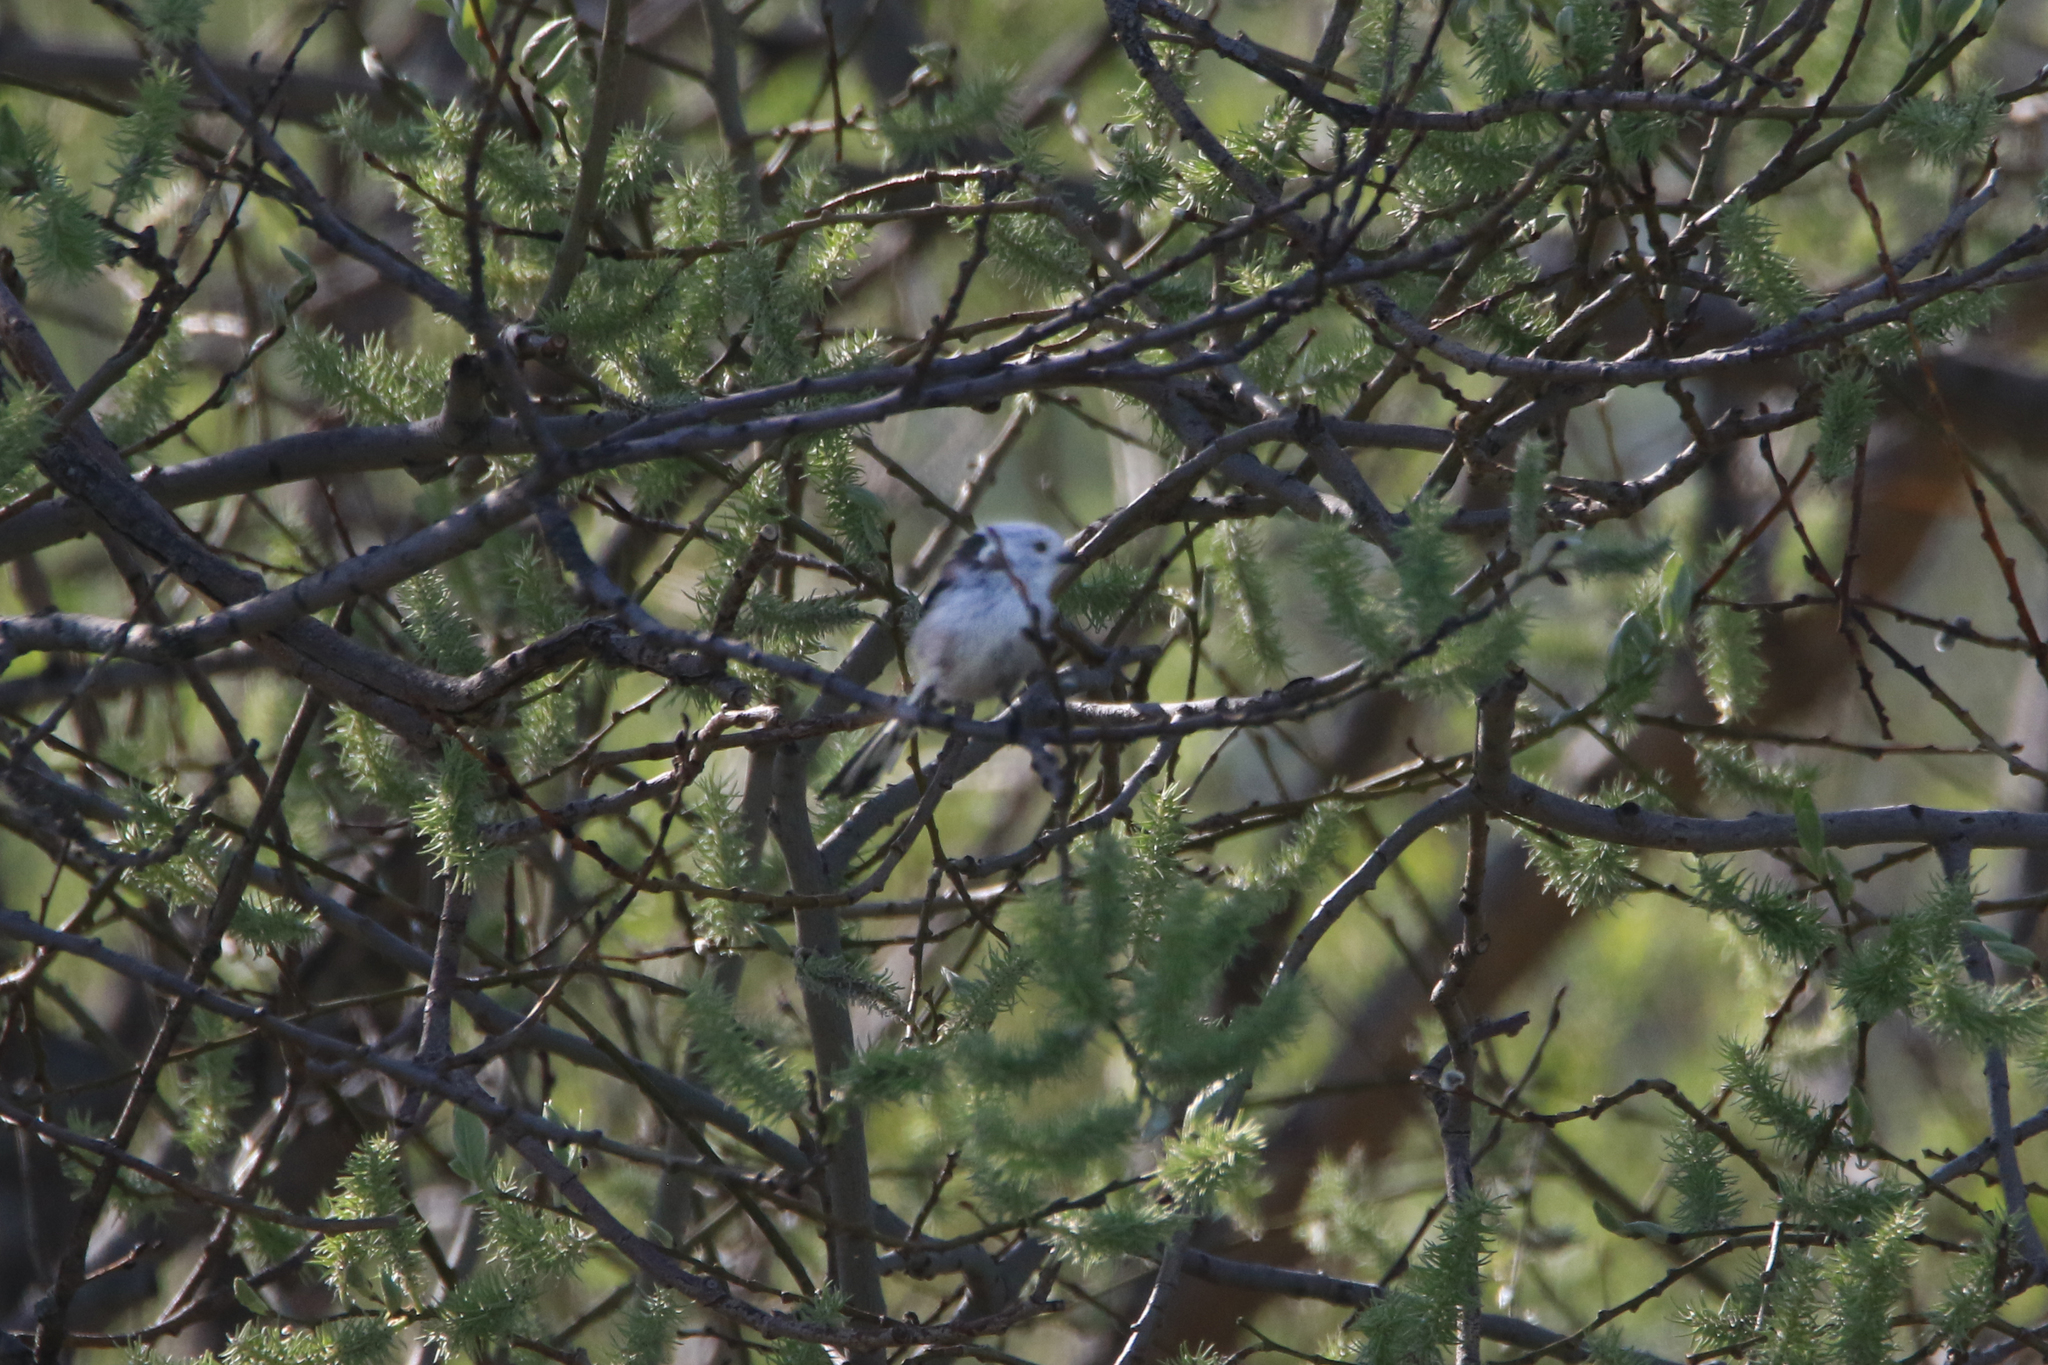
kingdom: Animalia
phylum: Chordata
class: Aves
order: Passeriformes
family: Aegithalidae
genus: Aegithalos
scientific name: Aegithalos caudatus
